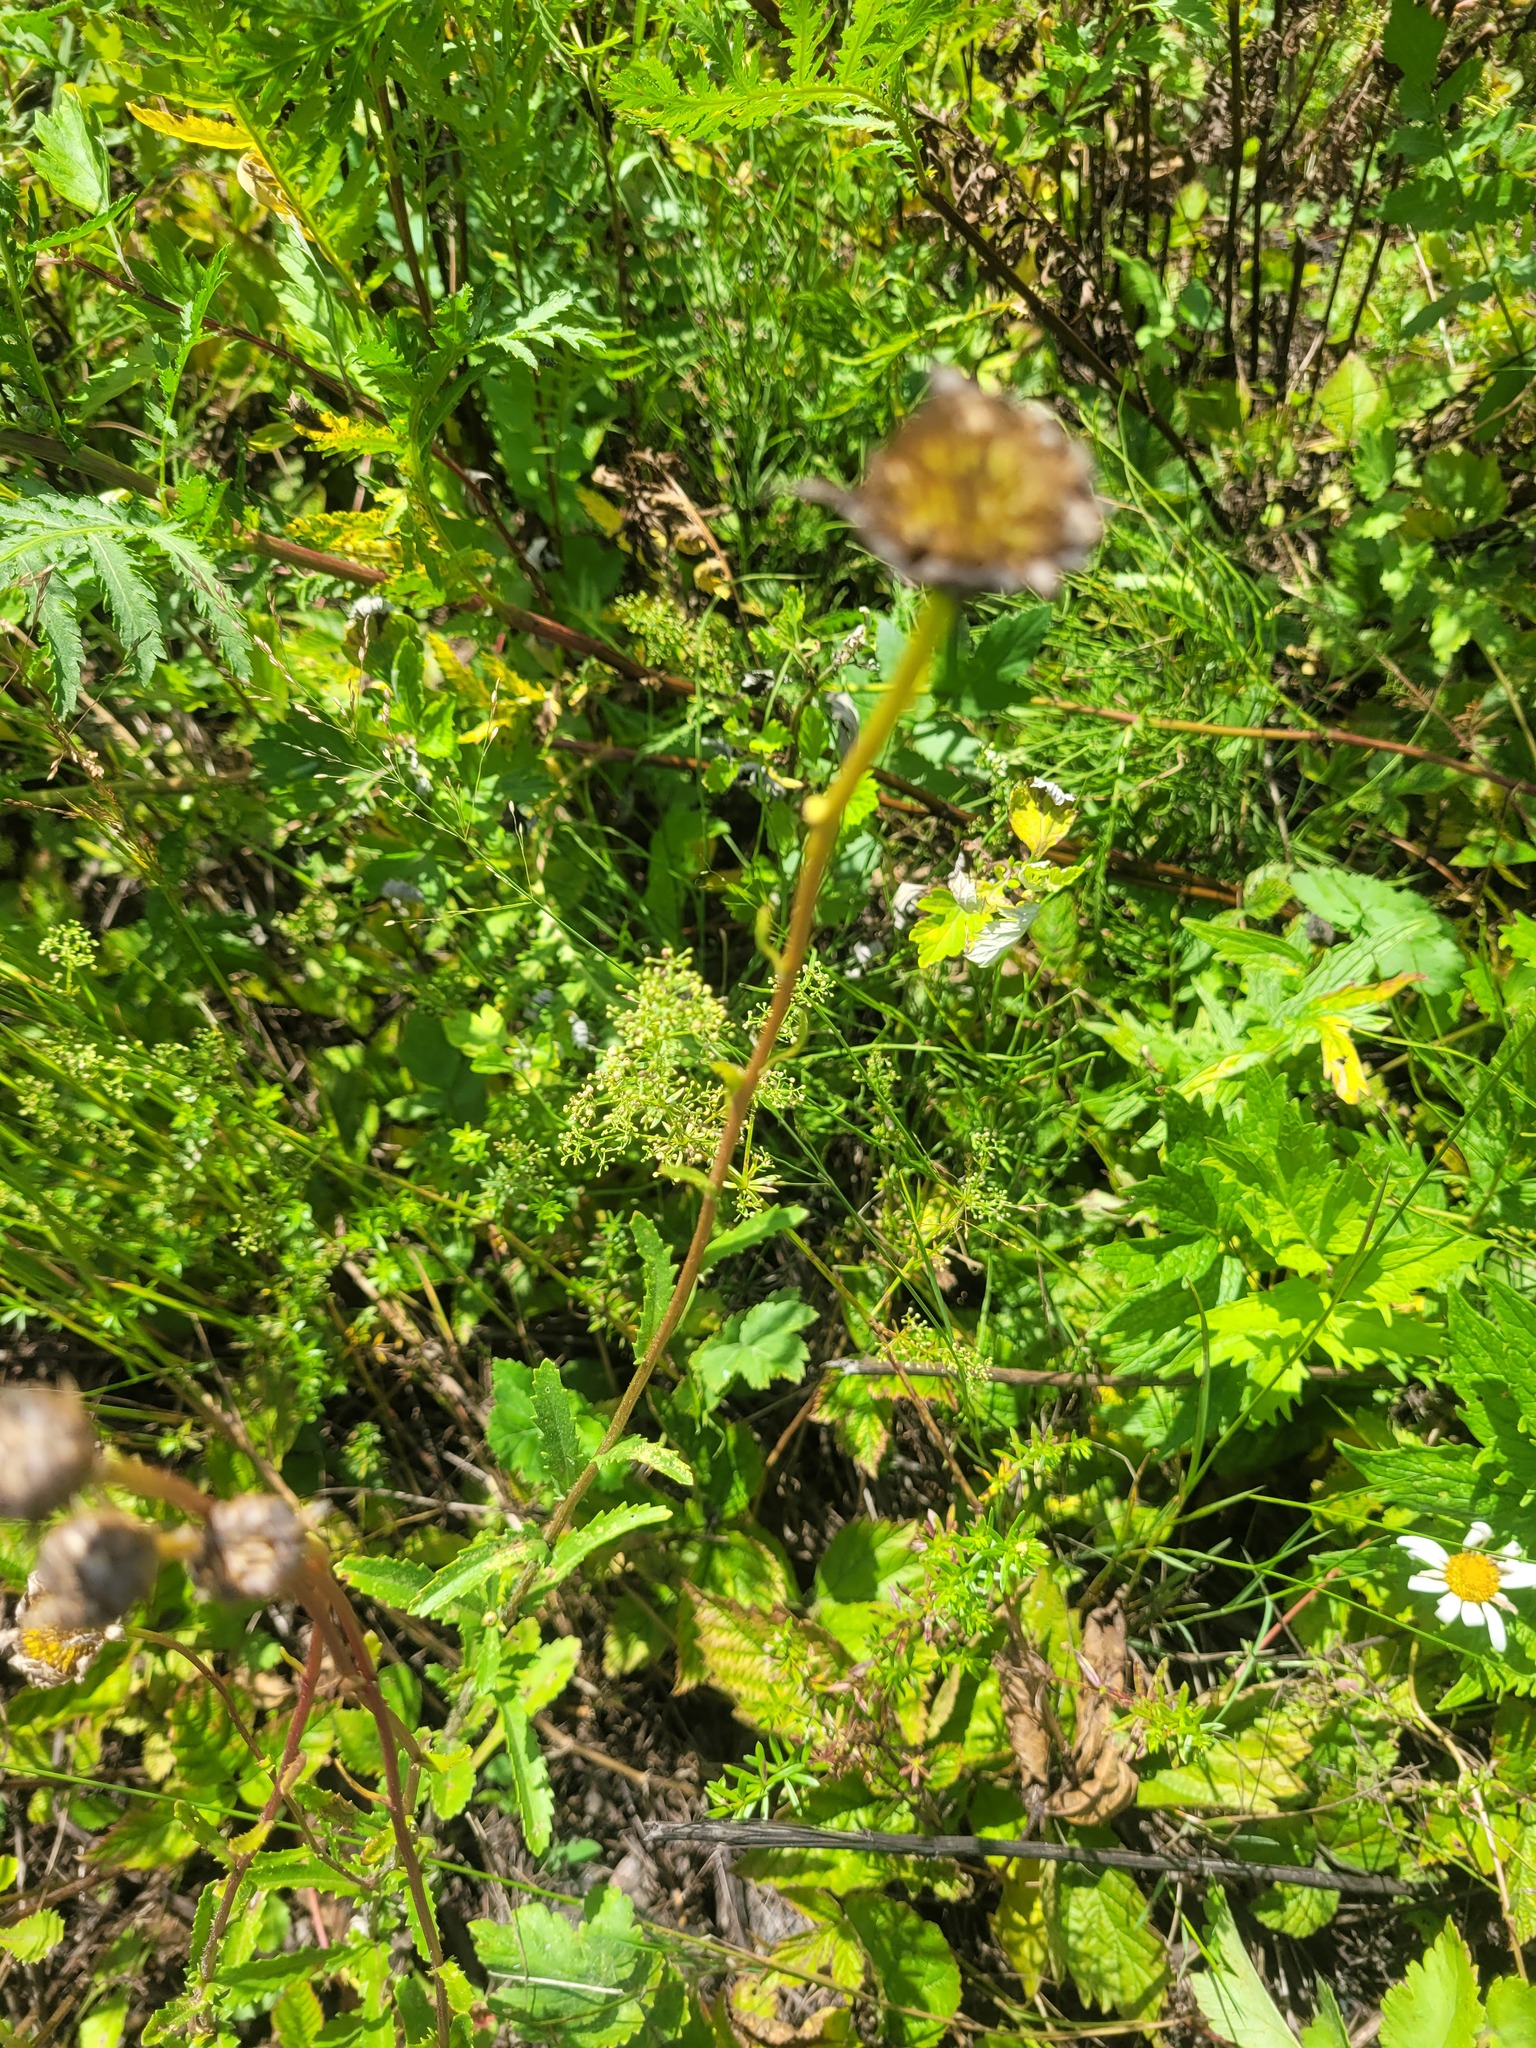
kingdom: Plantae
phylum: Tracheophyta
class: Magnoliopsida
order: Asterales
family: Asteraceae
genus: Leucanthemum
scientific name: Leucanthemum vulgare
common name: Oxeye daisy
